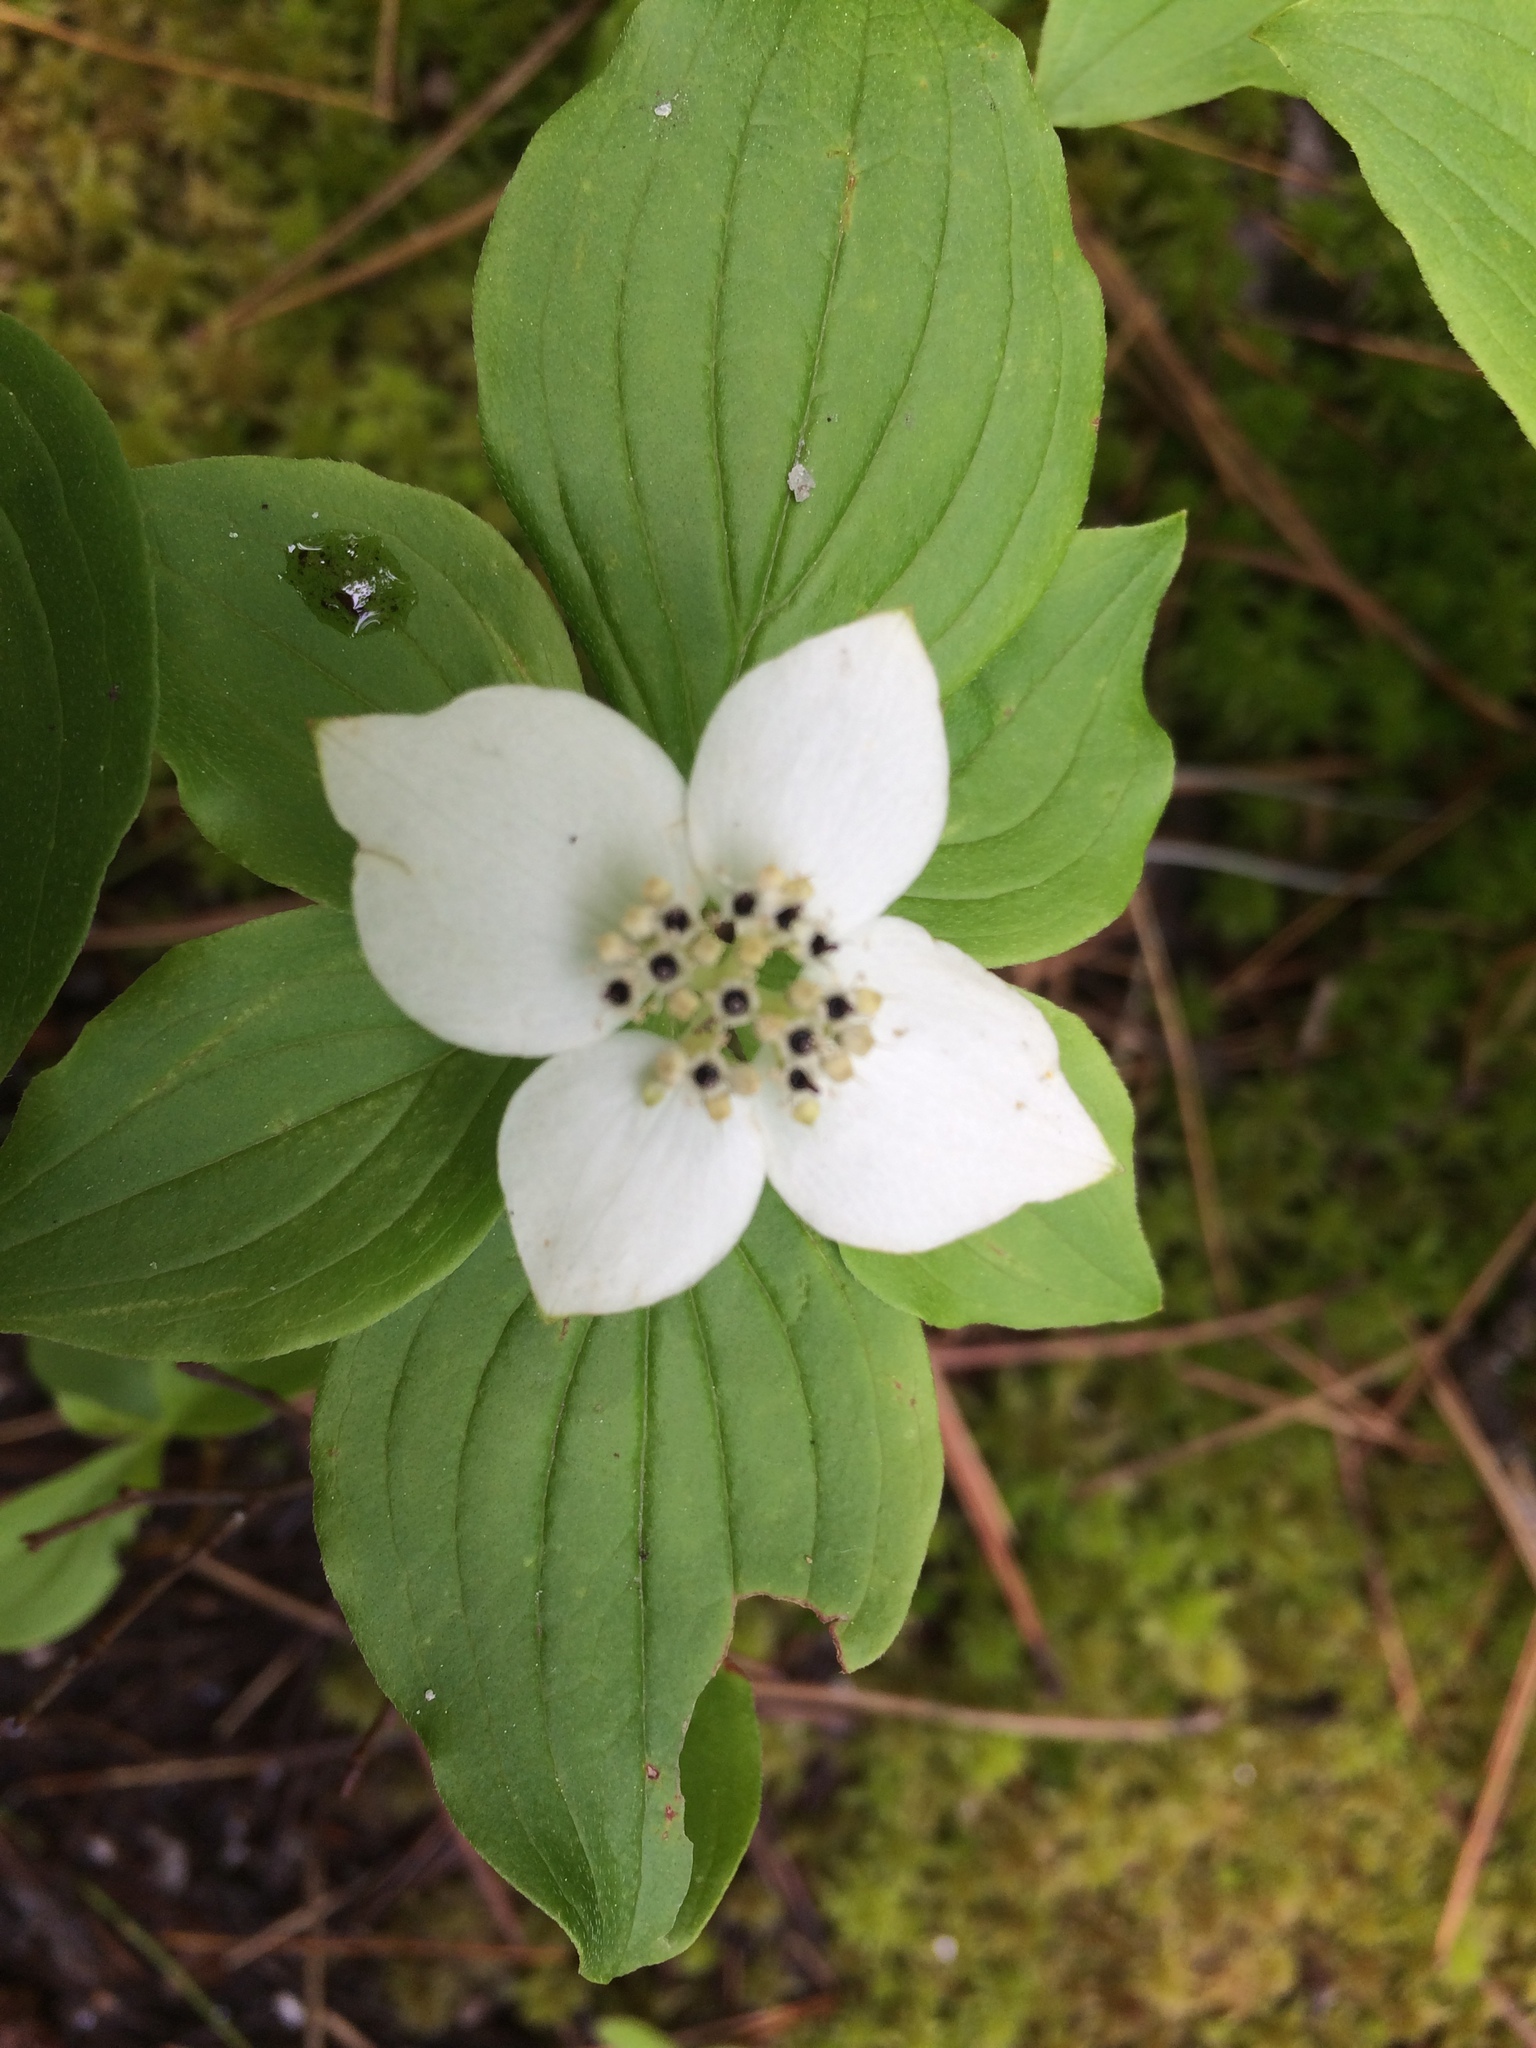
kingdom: Plantae
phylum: Tracheophyta
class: Magnoliopsida
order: Cornales
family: Cornaceae
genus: Cornus
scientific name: Cornus canadensis
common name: Creeping dogwood
